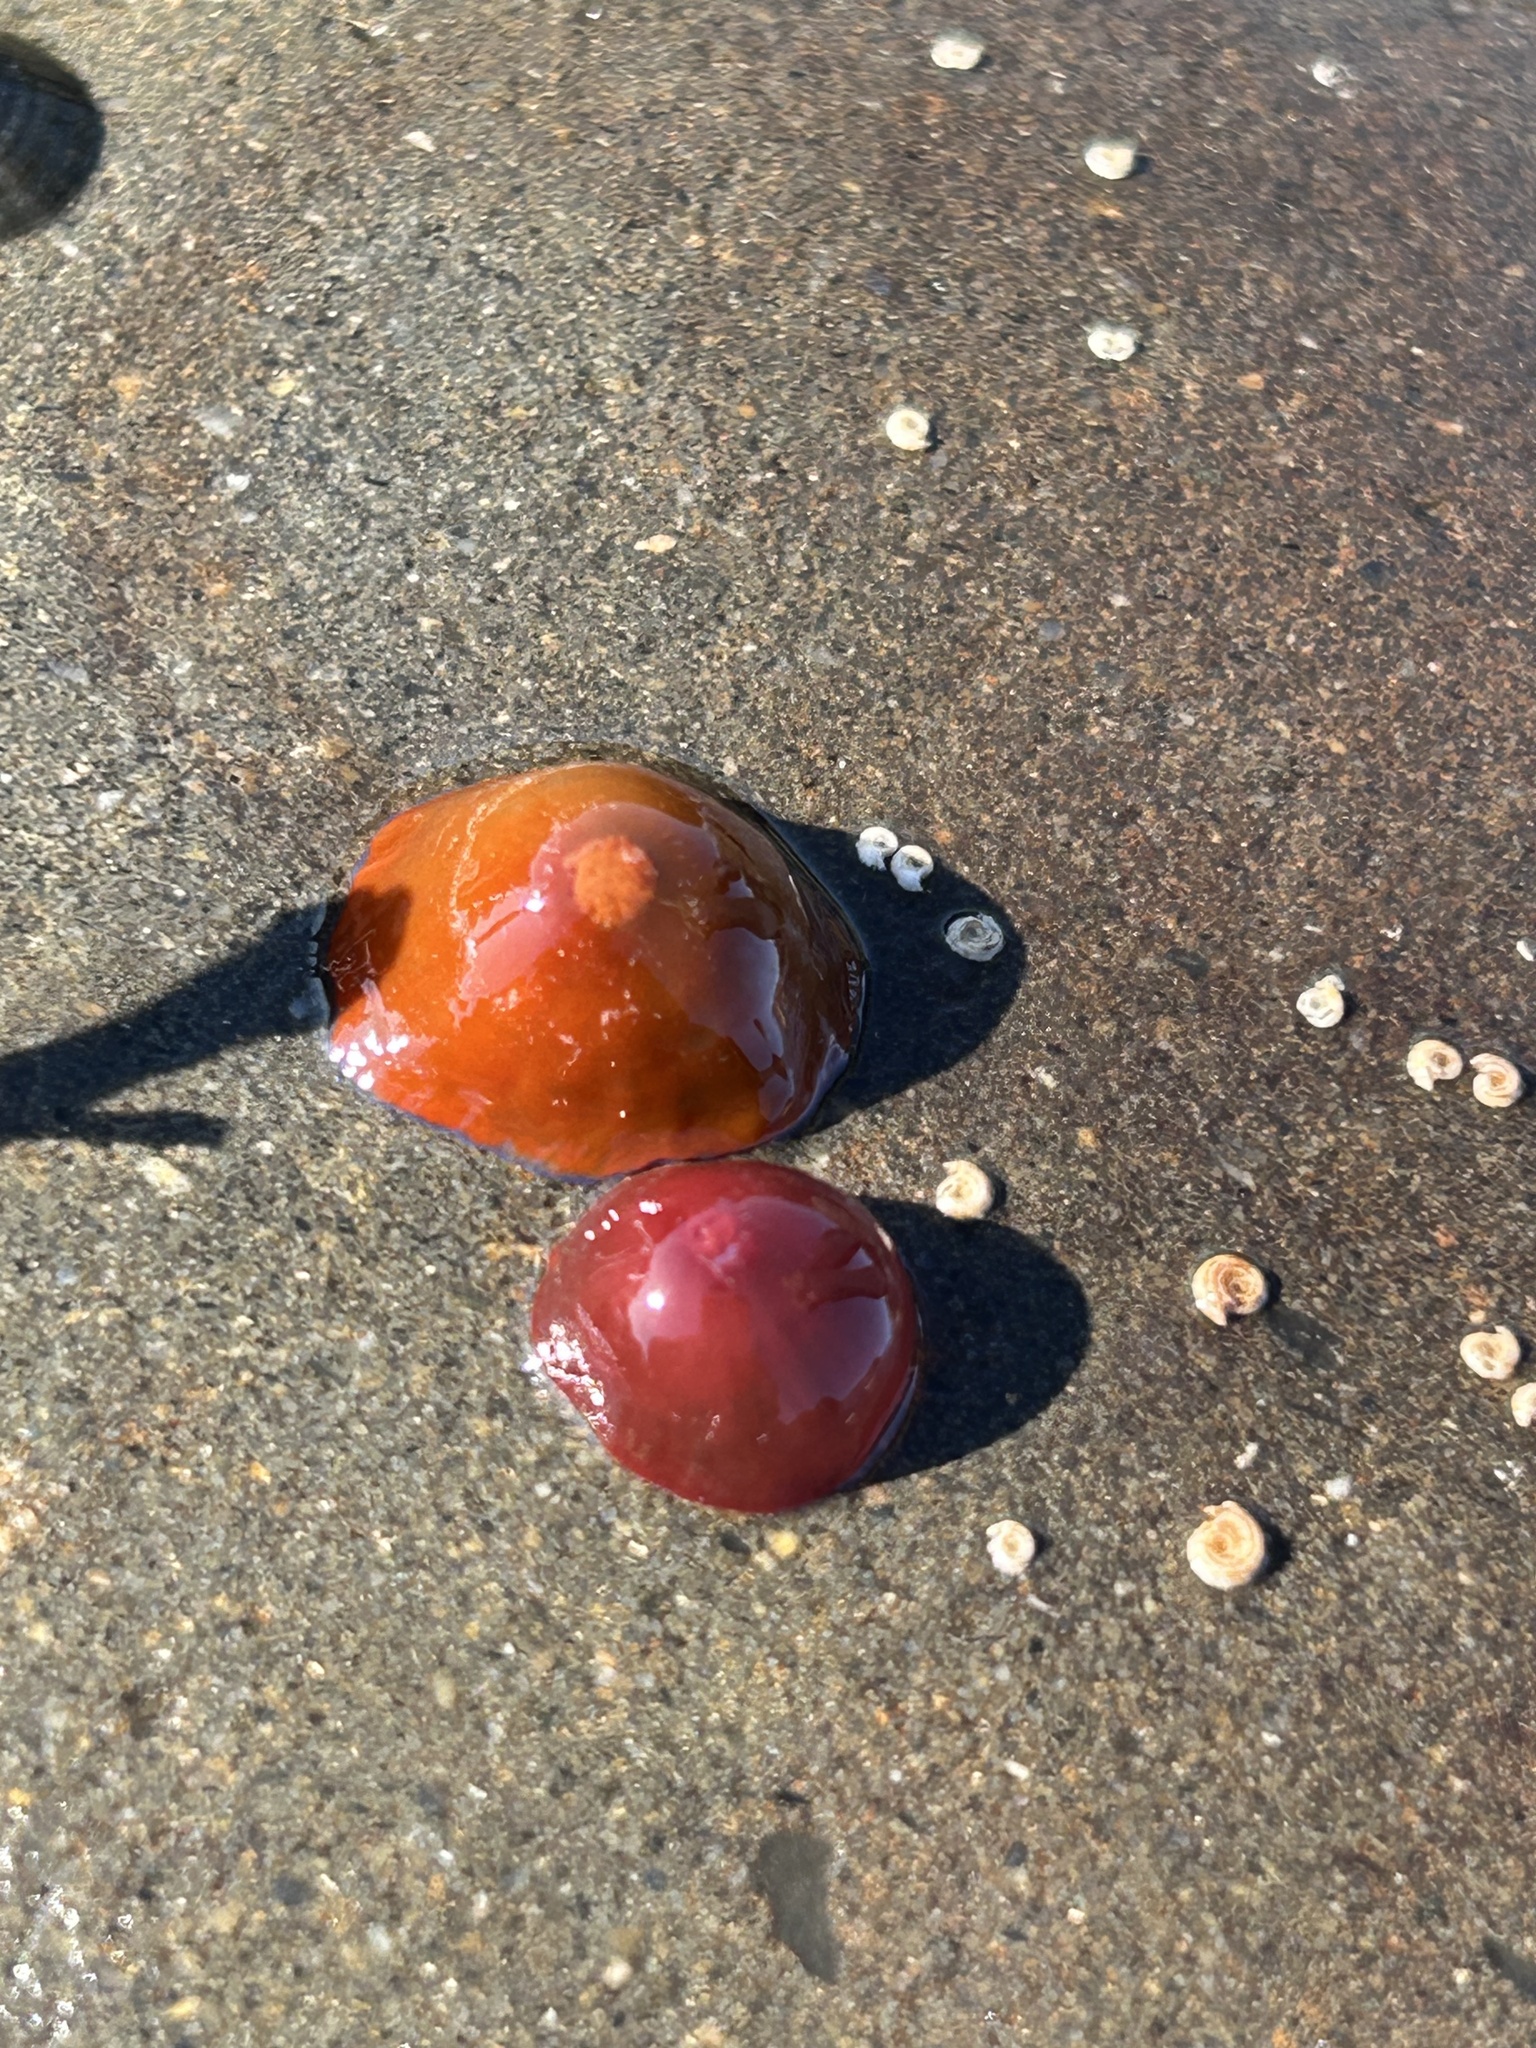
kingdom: Animalia
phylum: Cnidaria
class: Anthozoa
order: Actiniaria
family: Actiniidae
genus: Actinia
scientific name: Actinia equina
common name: Beadlet anemone
